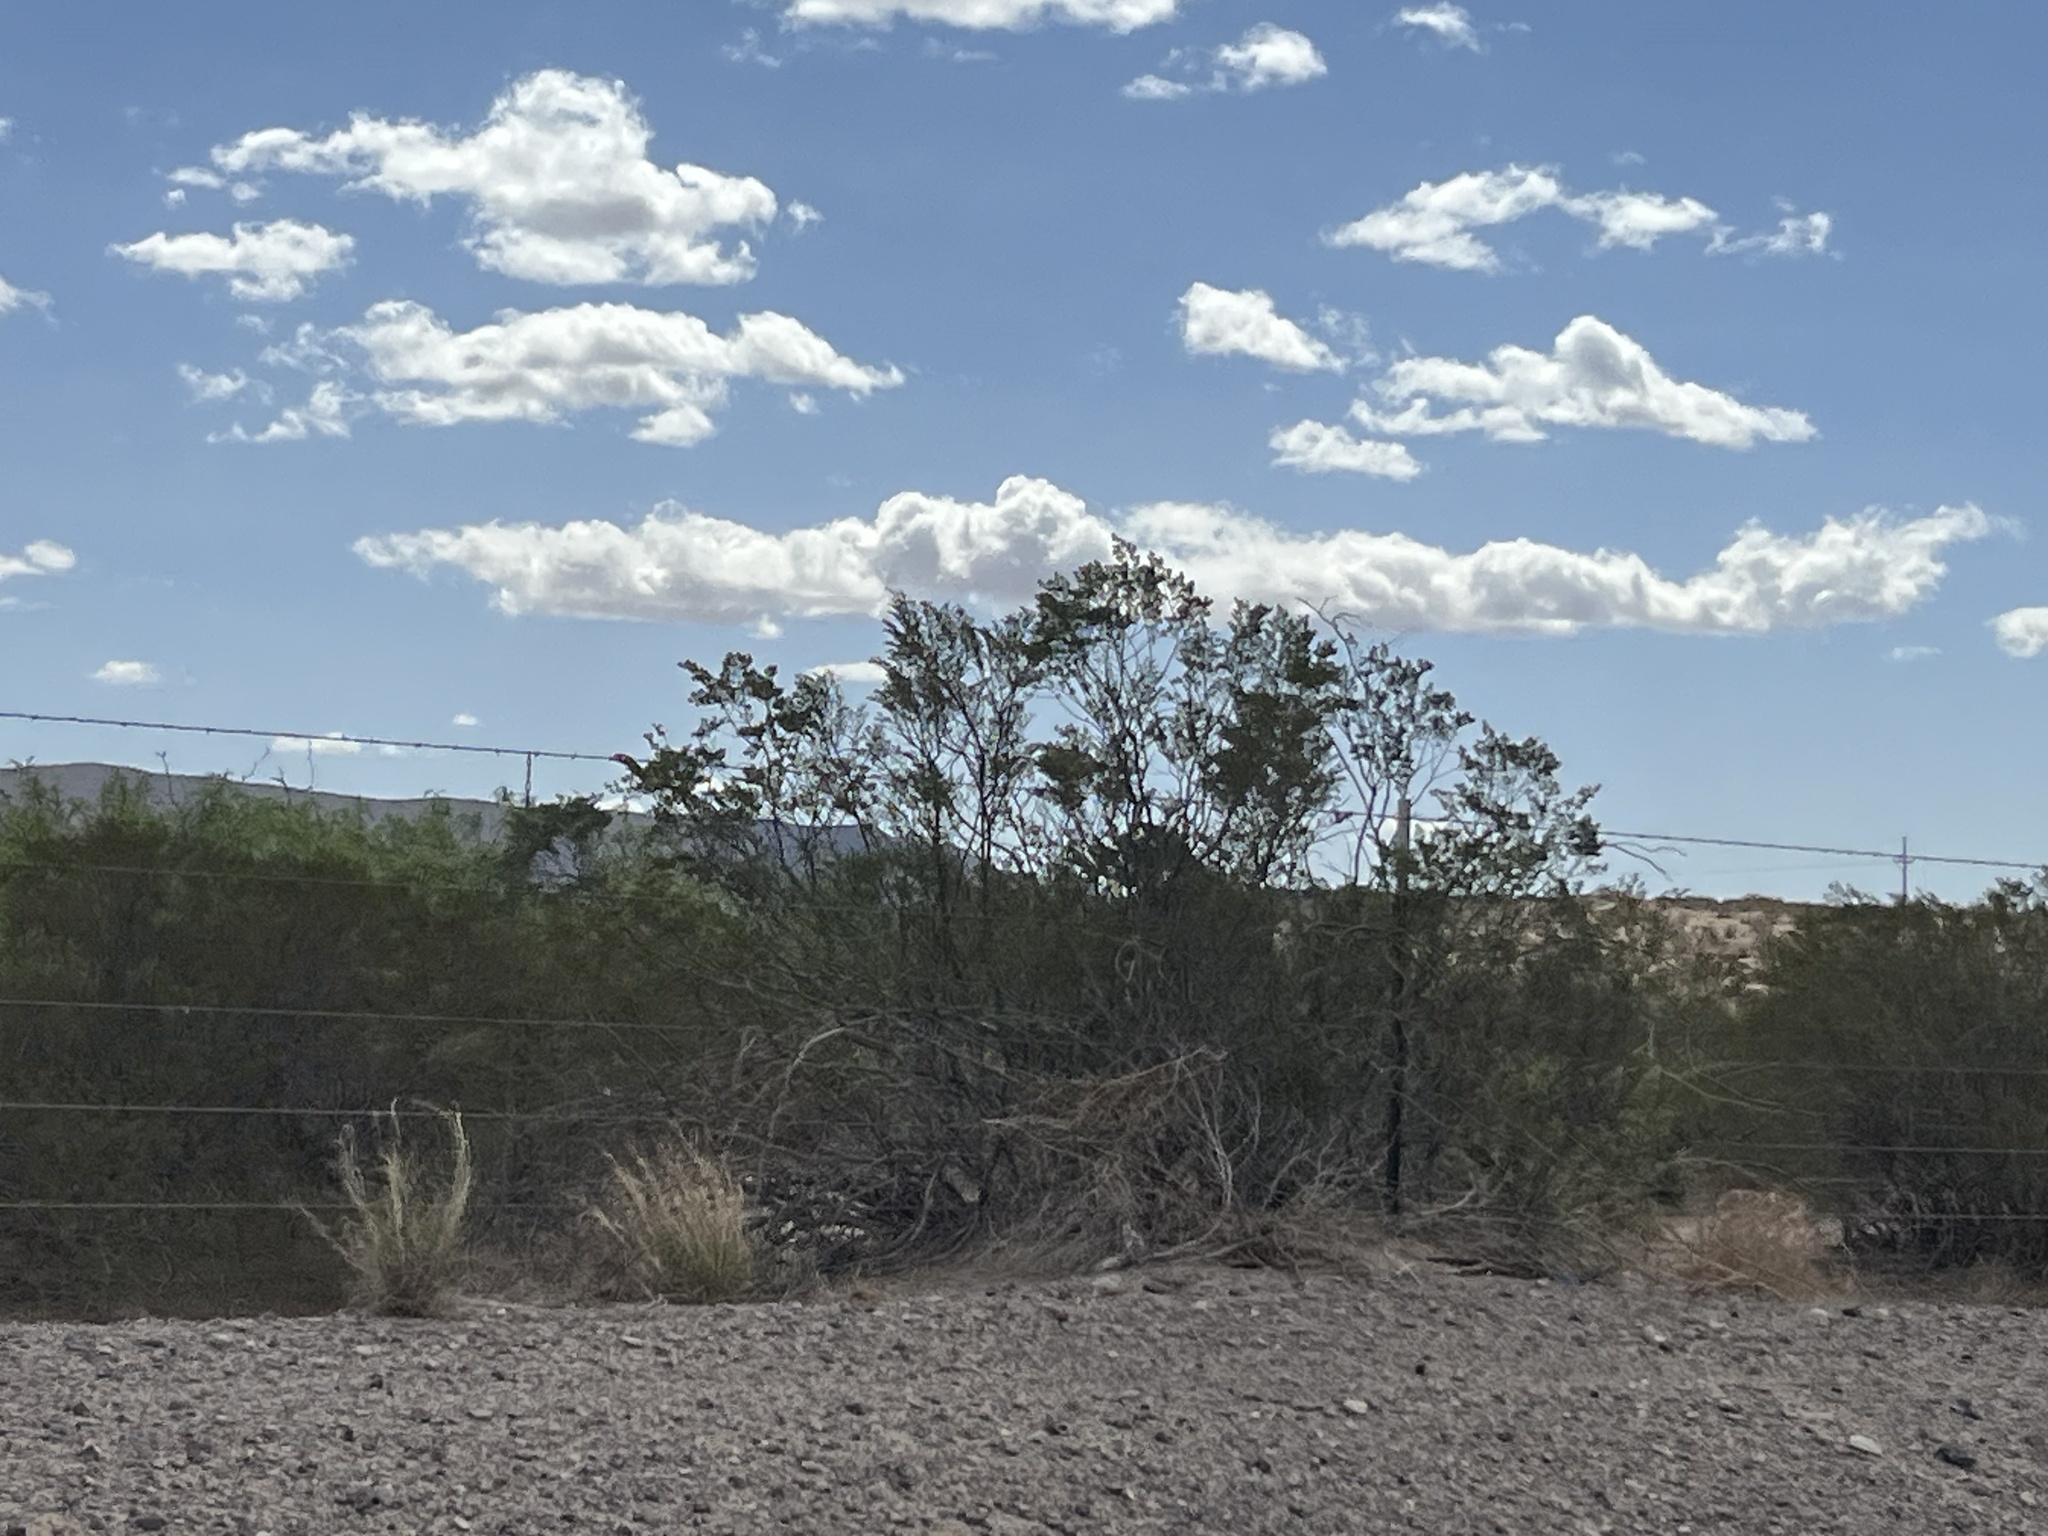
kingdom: Plantae
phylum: Tracheophyta
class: Magnoliopsida
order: Zygophyllales
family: Zygophyllaceae
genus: Larrea
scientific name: Larrea tridentata
